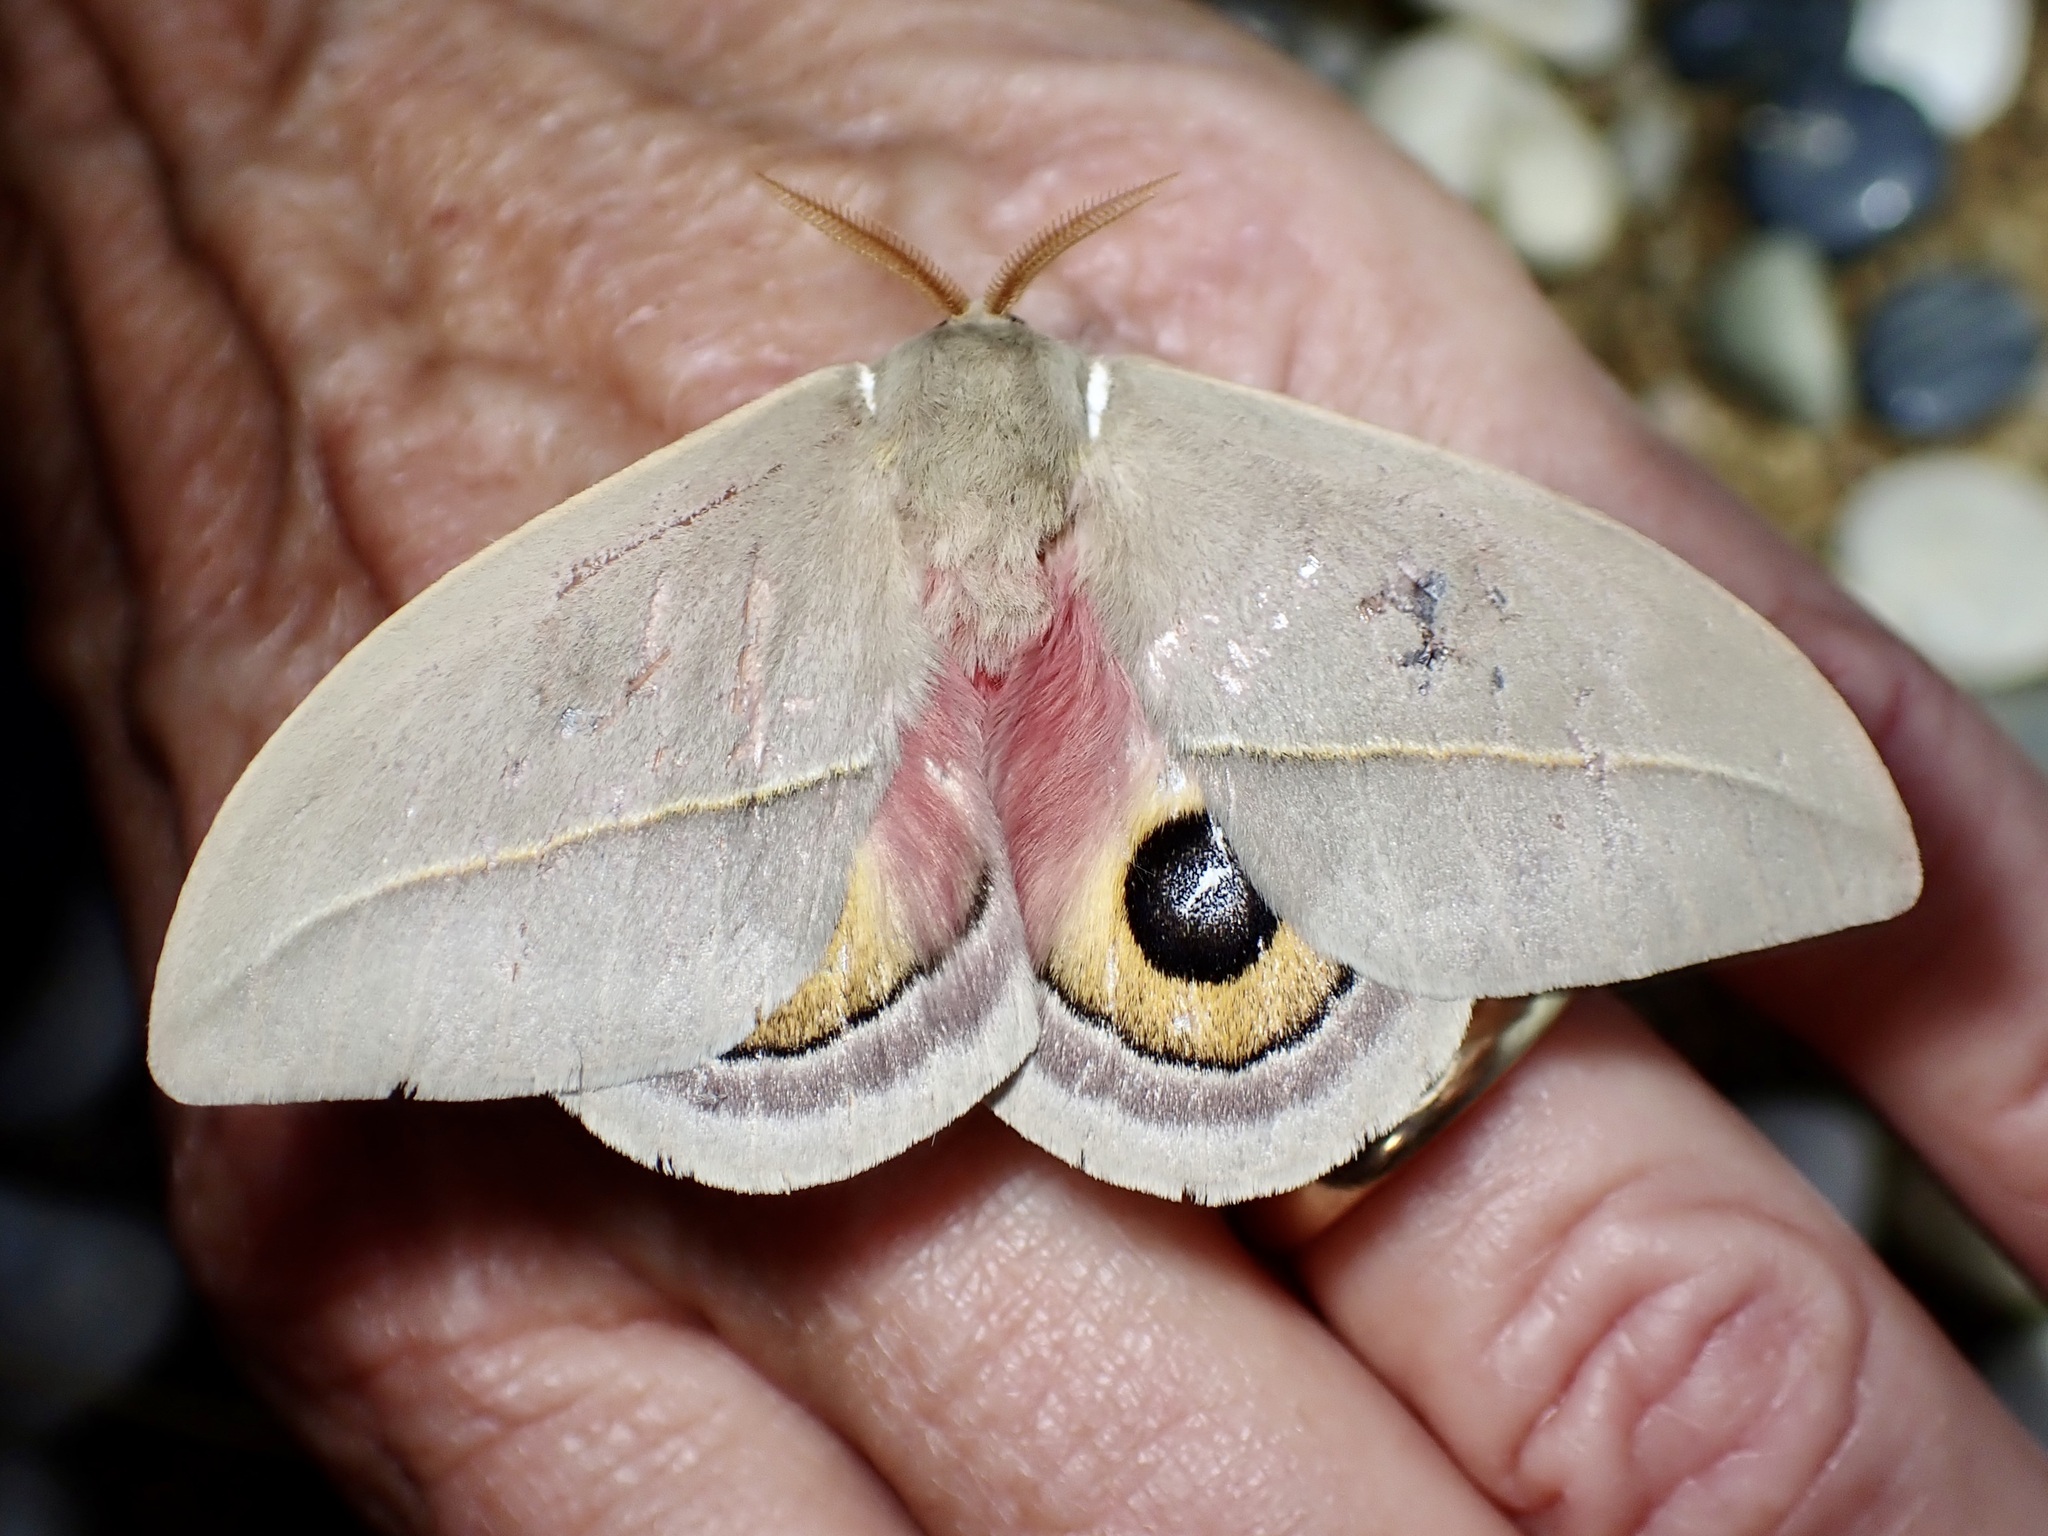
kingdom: Animalia
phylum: Arthropoda
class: Insecta
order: Lepidoptera
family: Saturniidae
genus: Automeris
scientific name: Automeris cecrops
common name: Cecrops eyed silkmoth
